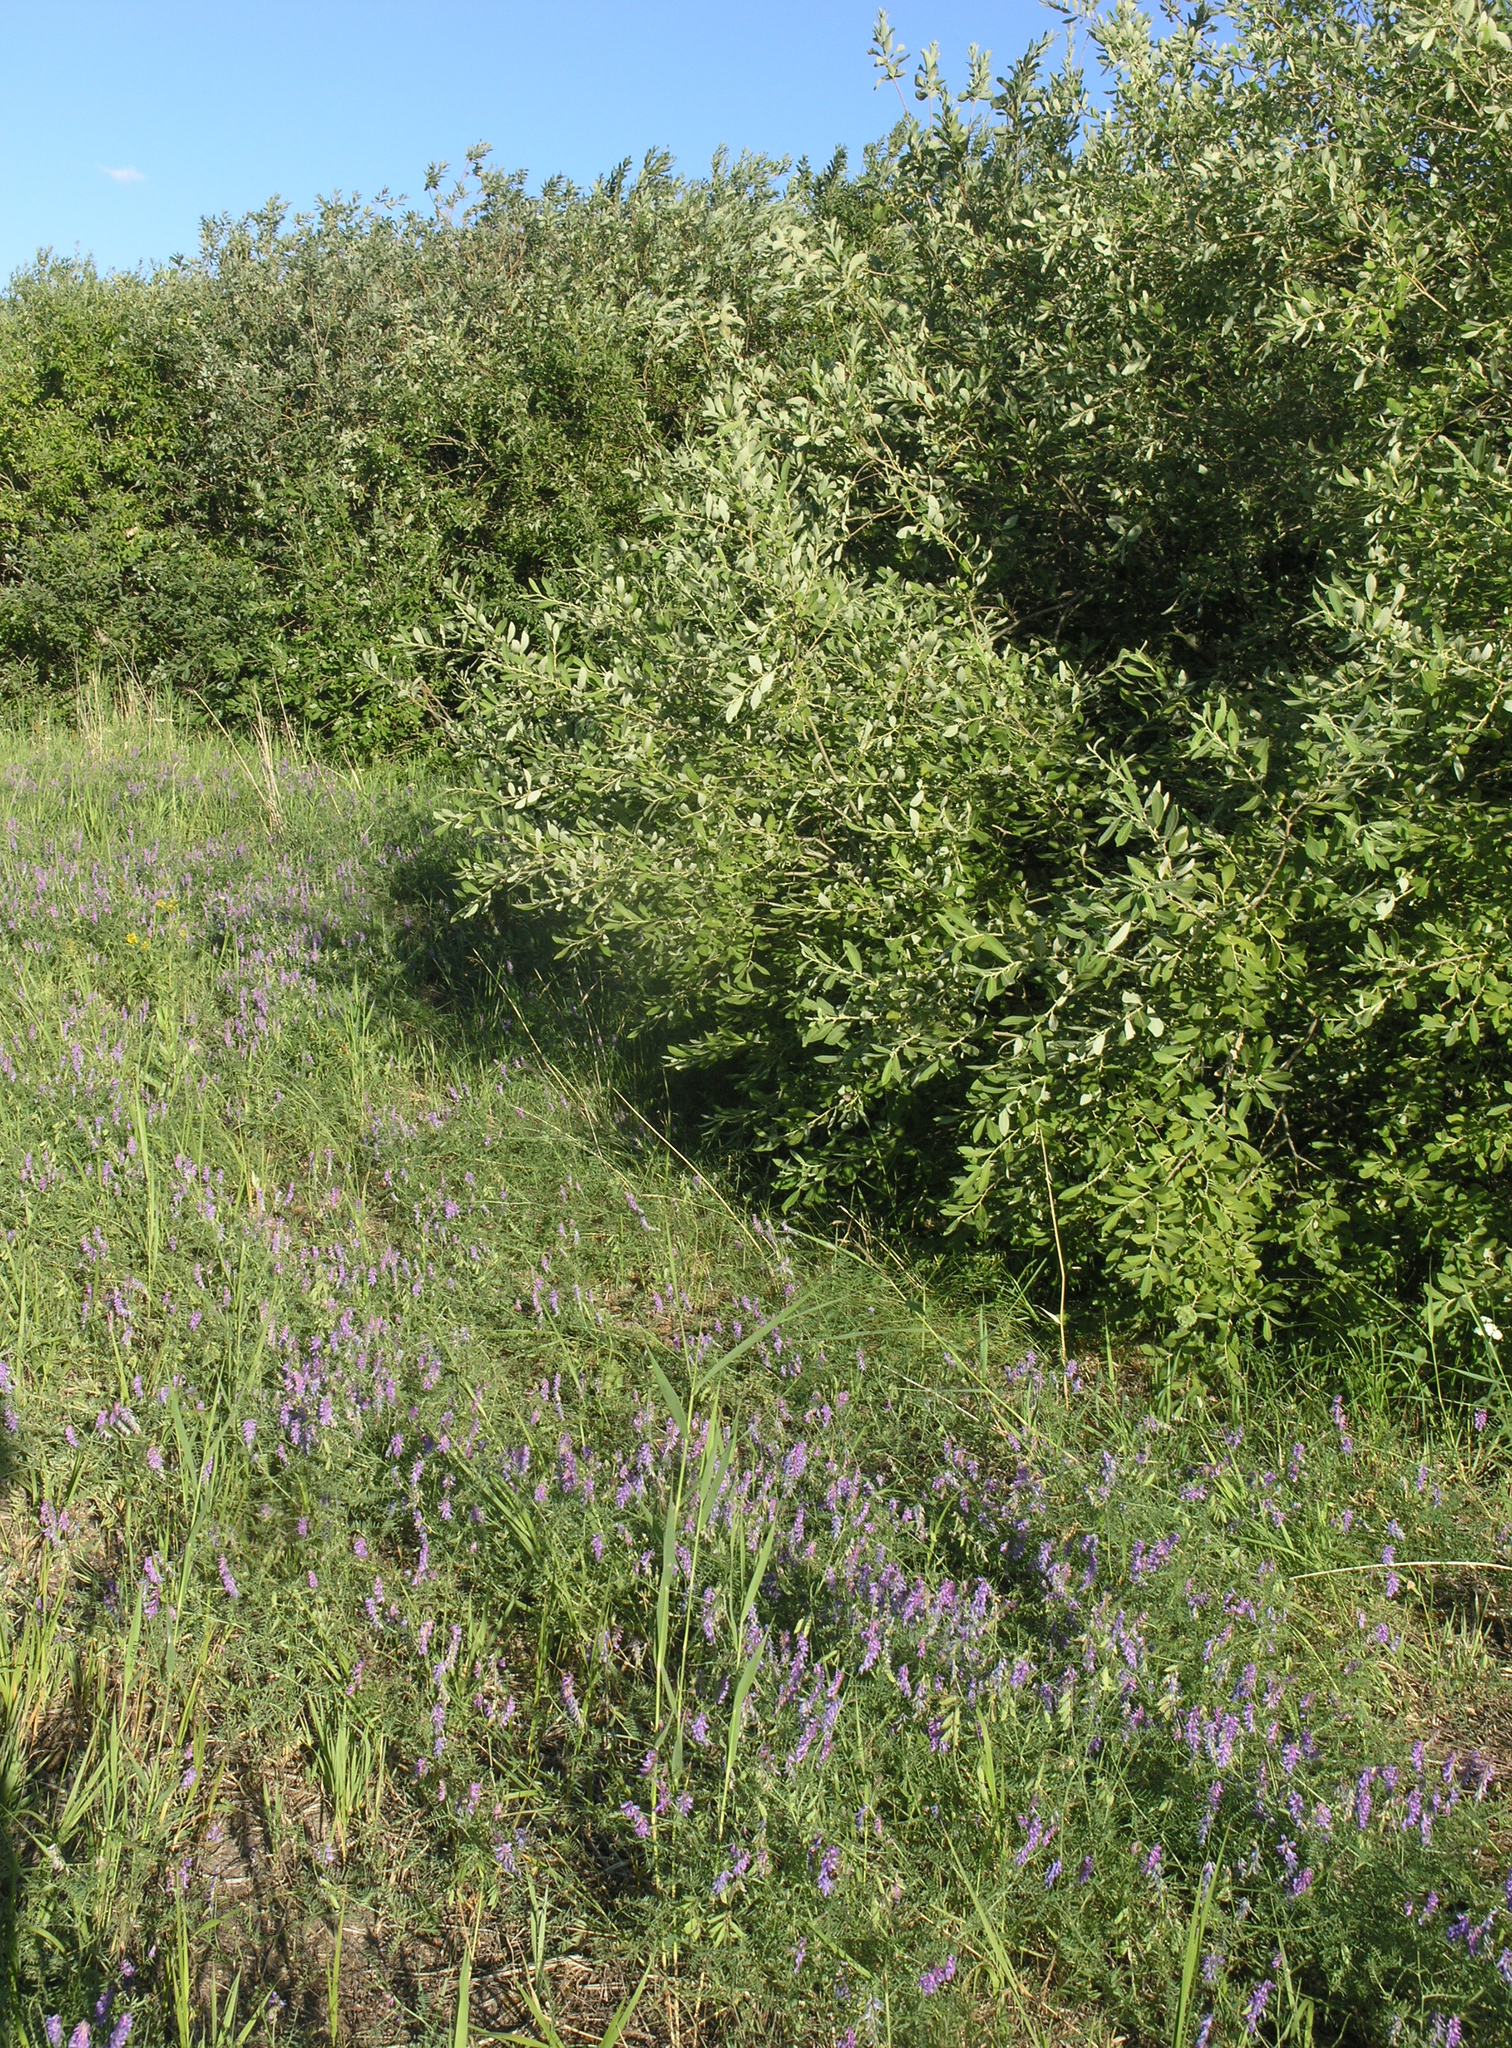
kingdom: Plantae
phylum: Tracheophyta
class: Magnoliopsida
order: Fabales
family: Fabaceae
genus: Vicia
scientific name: Vicia cracca
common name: Bird vetch
